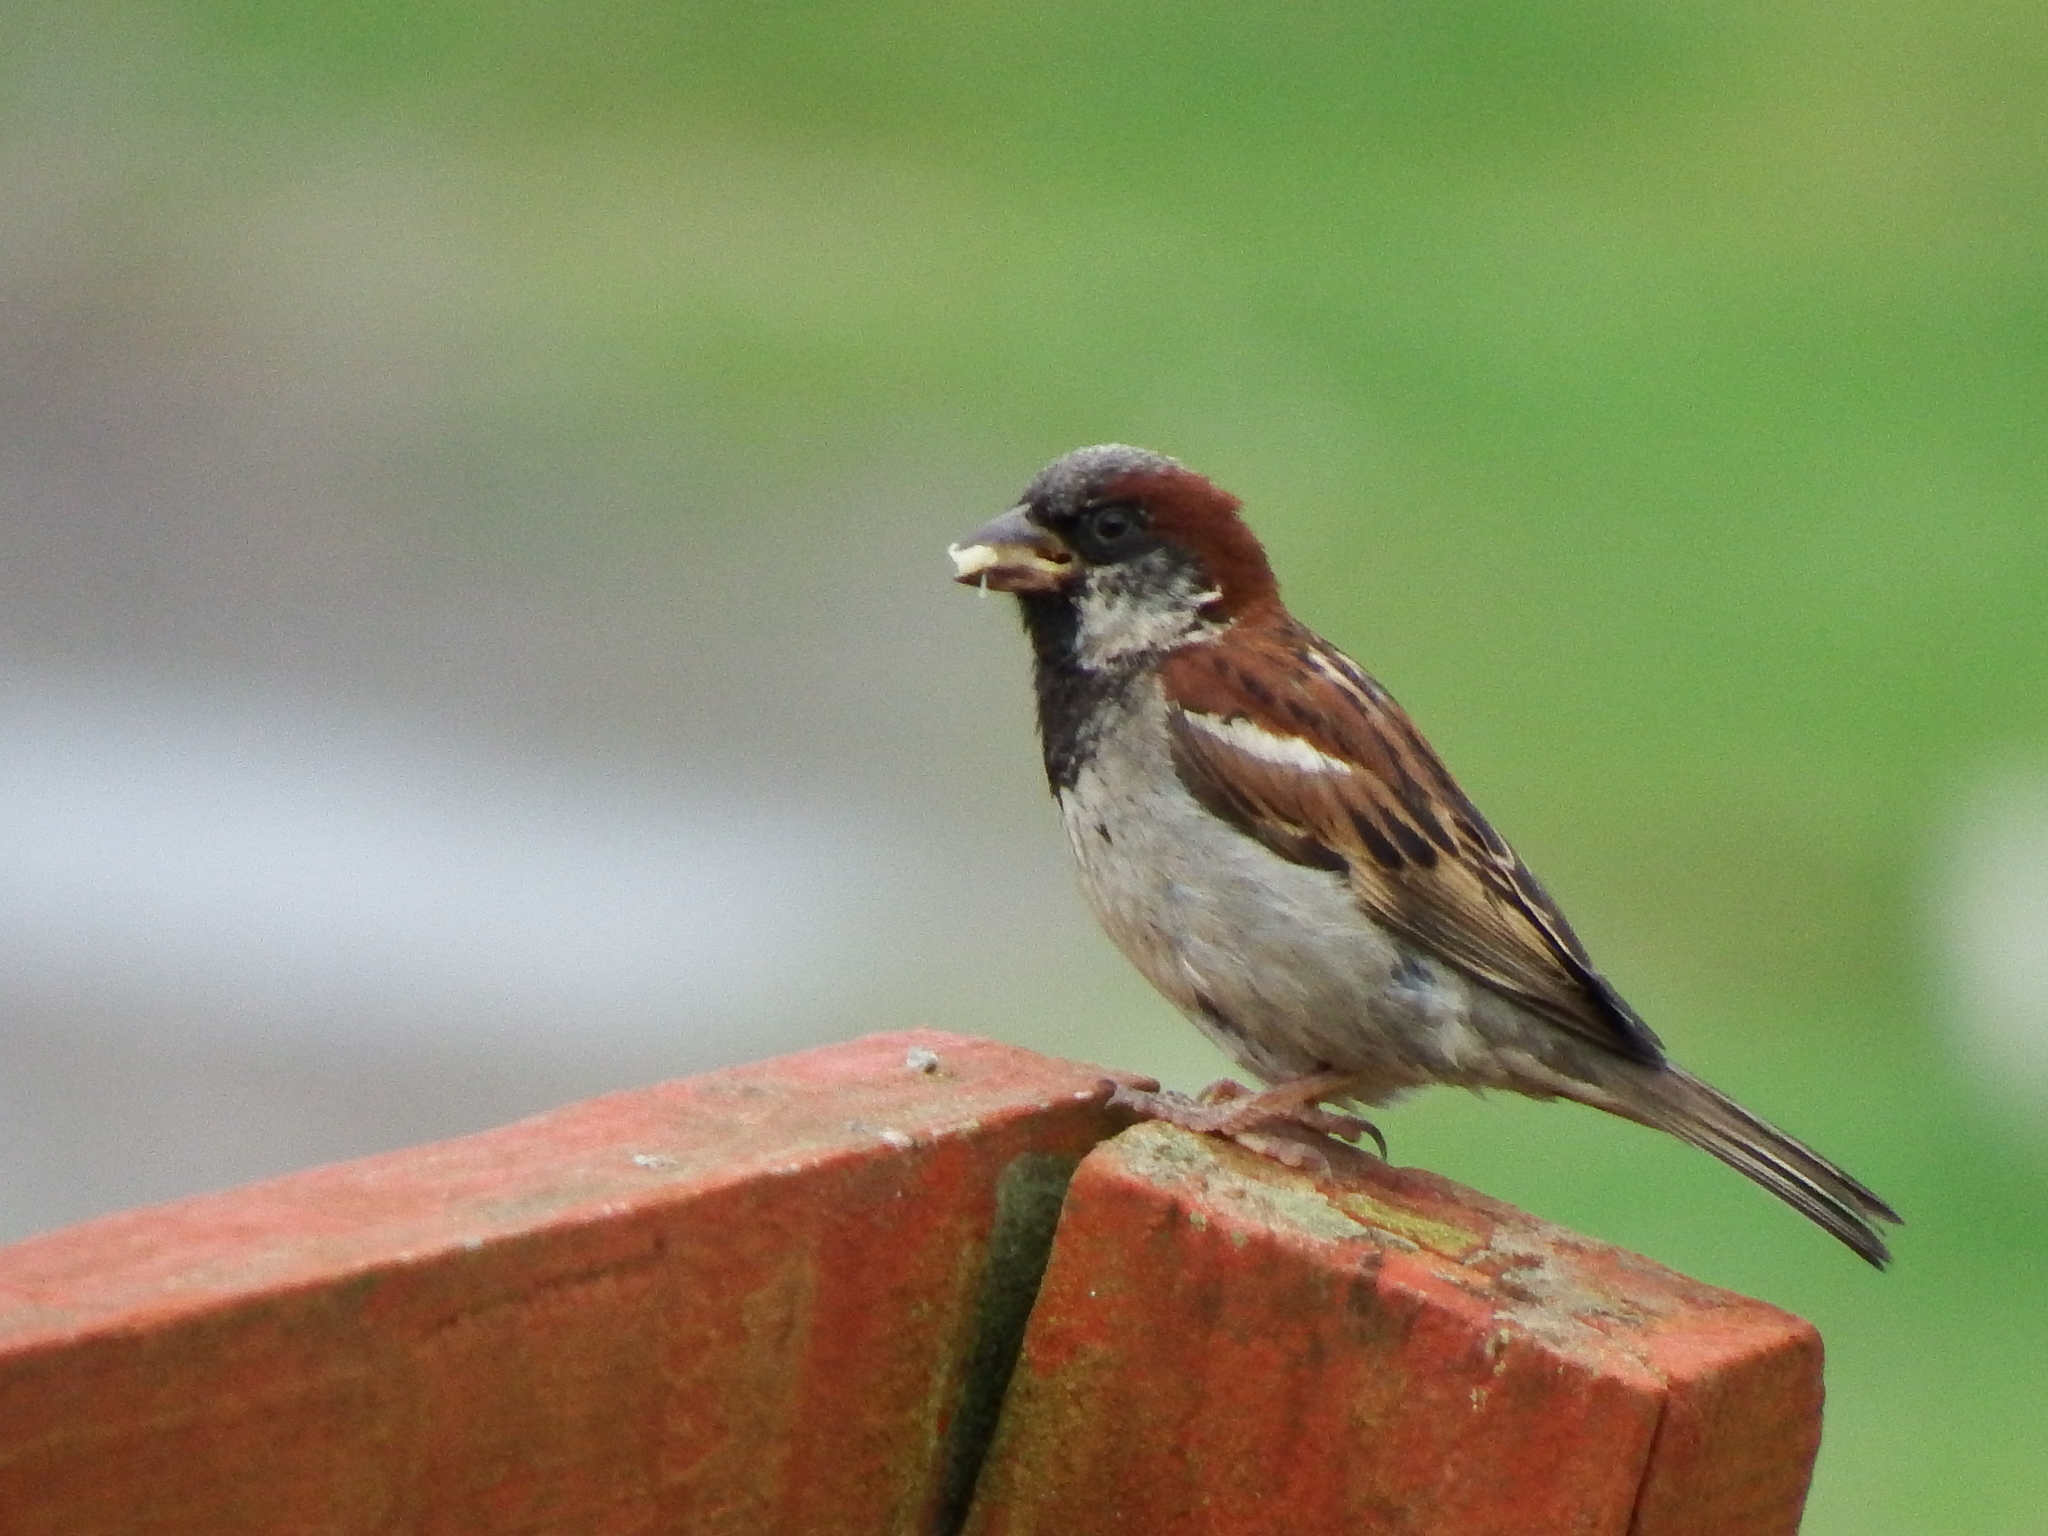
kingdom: Animalia
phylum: Chordata
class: Aves
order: Passeriformes
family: Passeridae
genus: Passer
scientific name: Passer domesticus
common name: House sparrow
